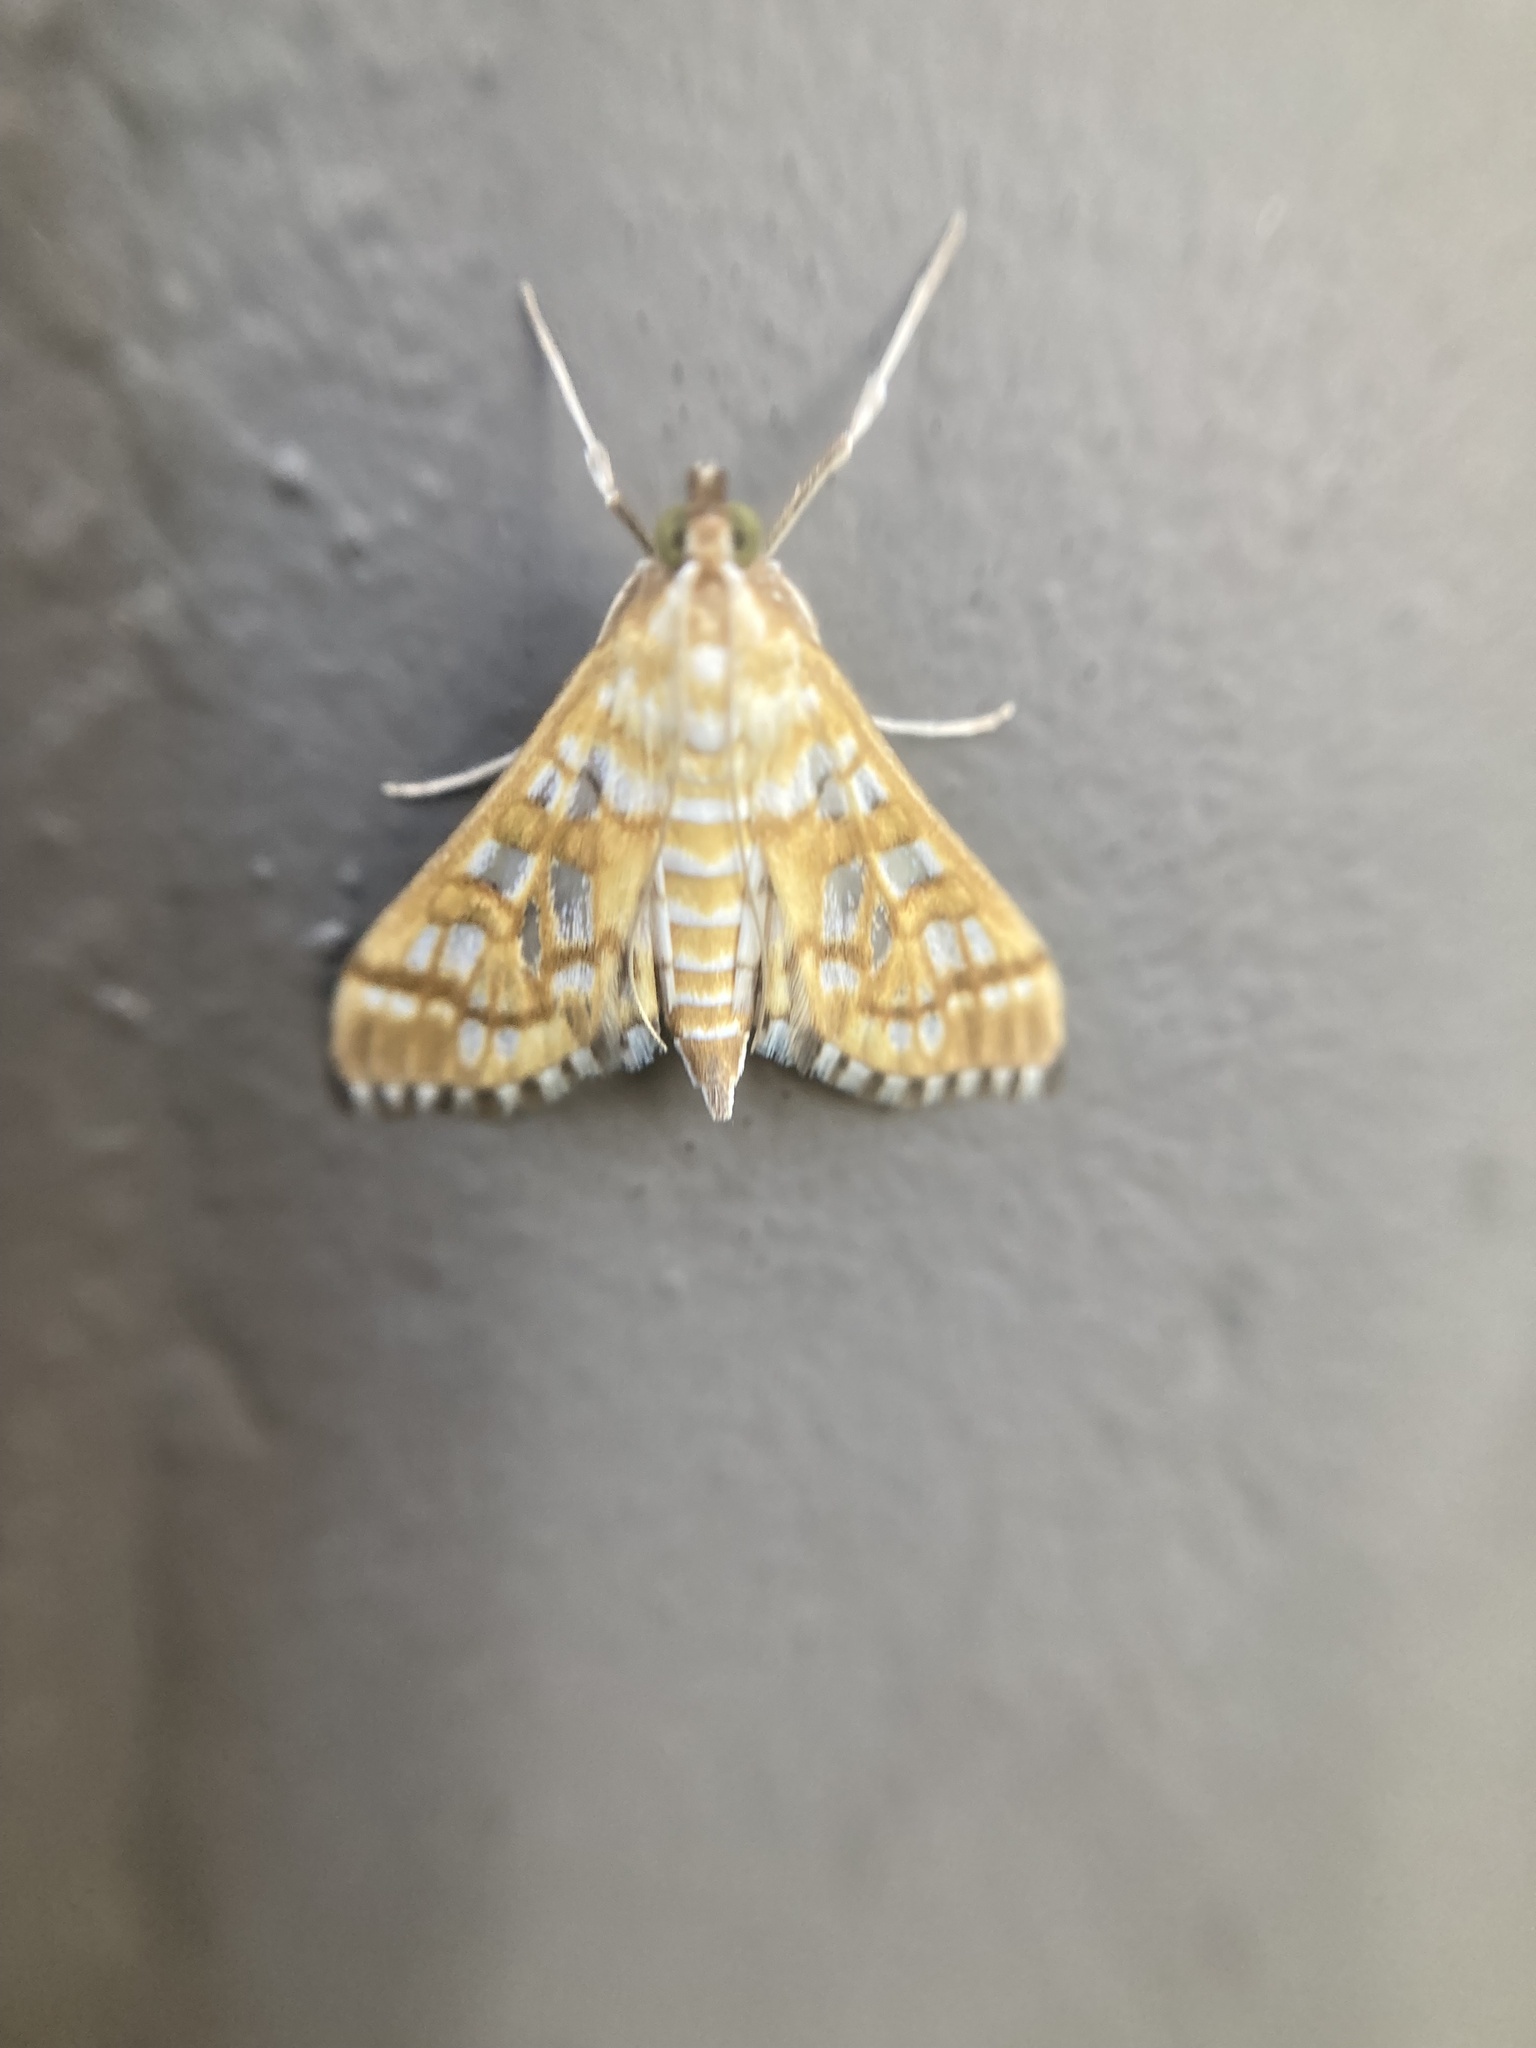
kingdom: Animalia
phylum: Arthropoda
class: Insecta
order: Lepidoptera
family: Crambidae
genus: Epipagis
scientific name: Epipagis fenestralis
